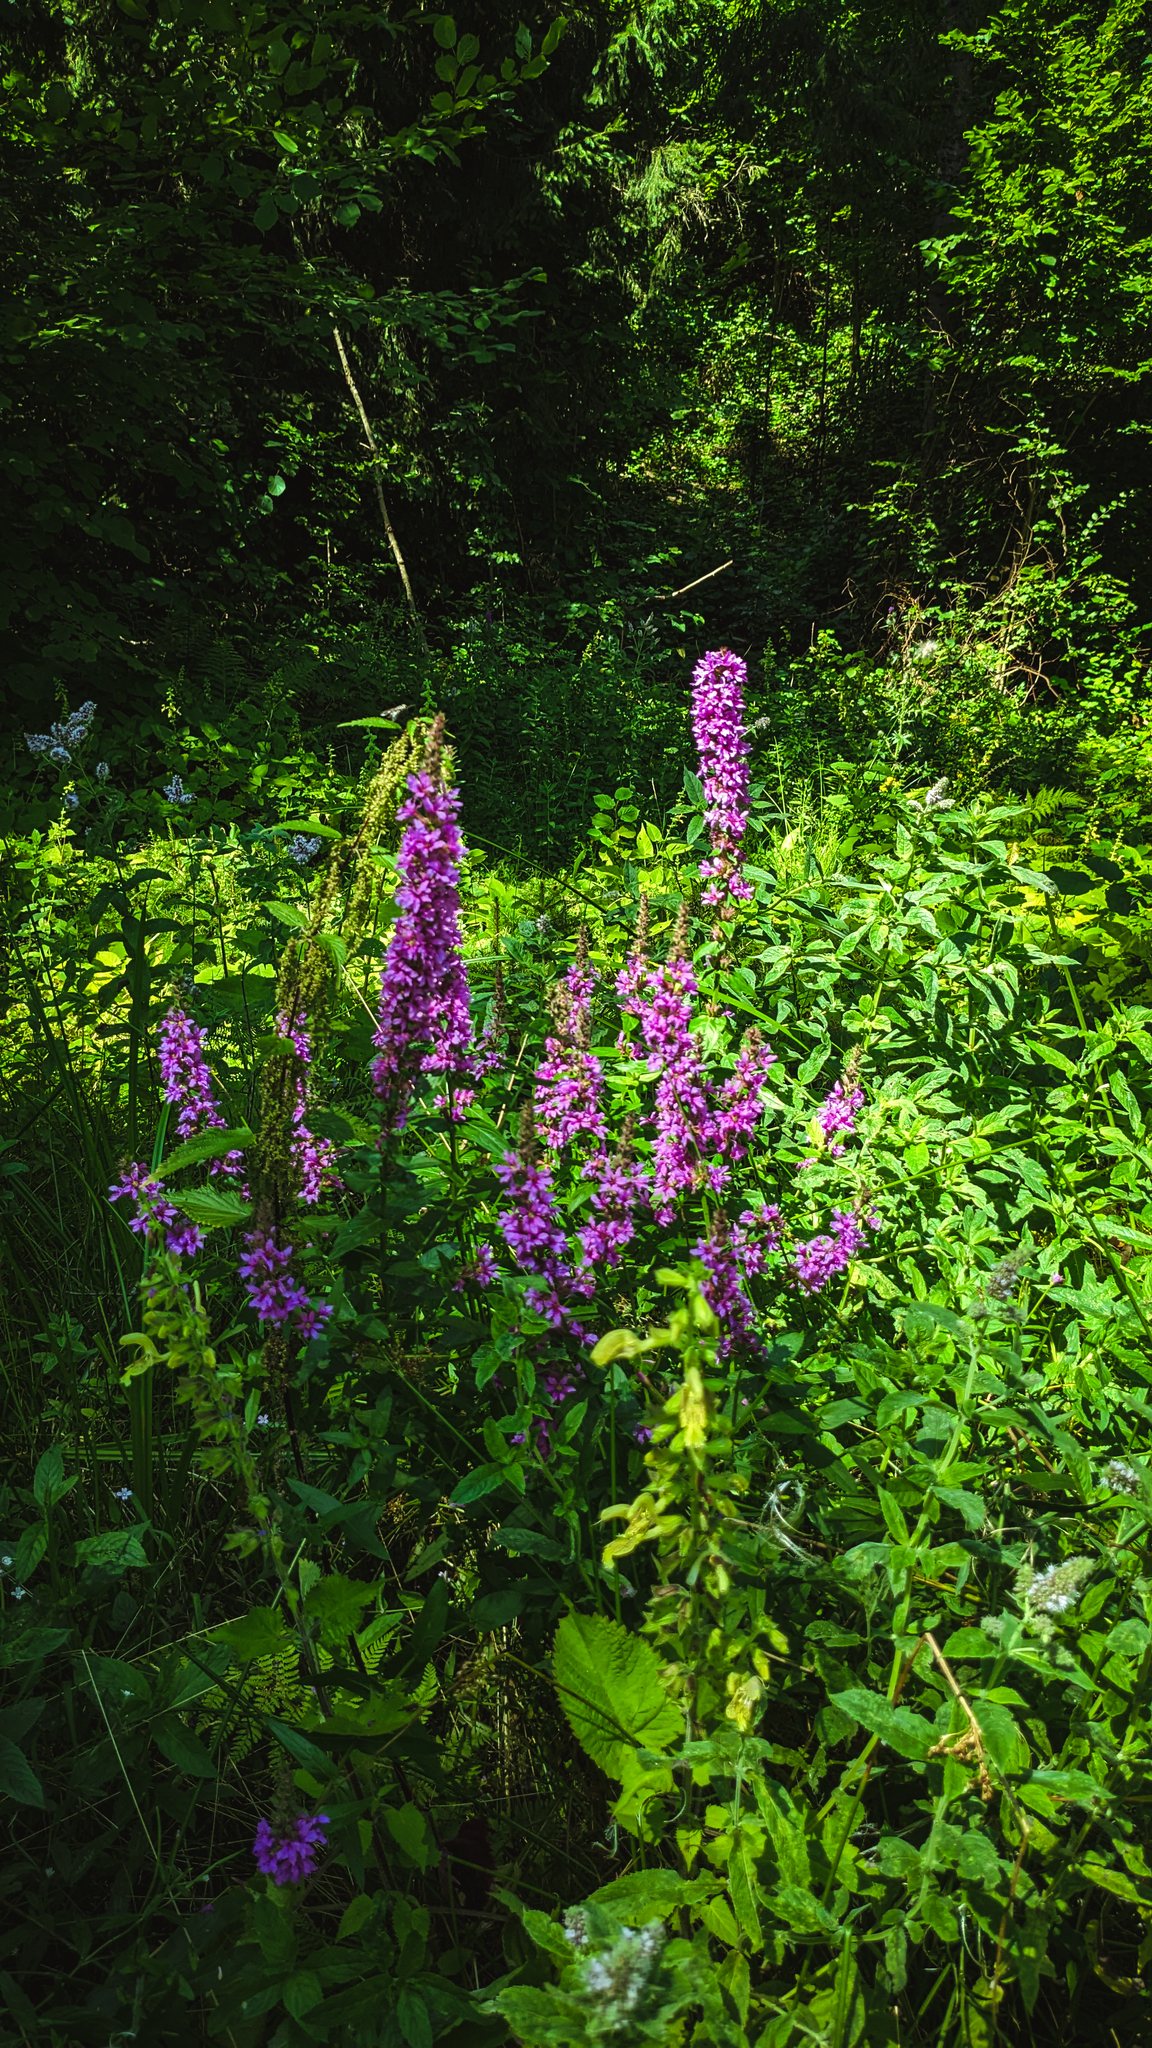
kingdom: Plantae
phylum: Tracheophyta
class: Magnoliopsida
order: Myrtales
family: Lythraceae
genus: Lythrum
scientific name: Lythrum salicaria
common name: Purple loosestrife
